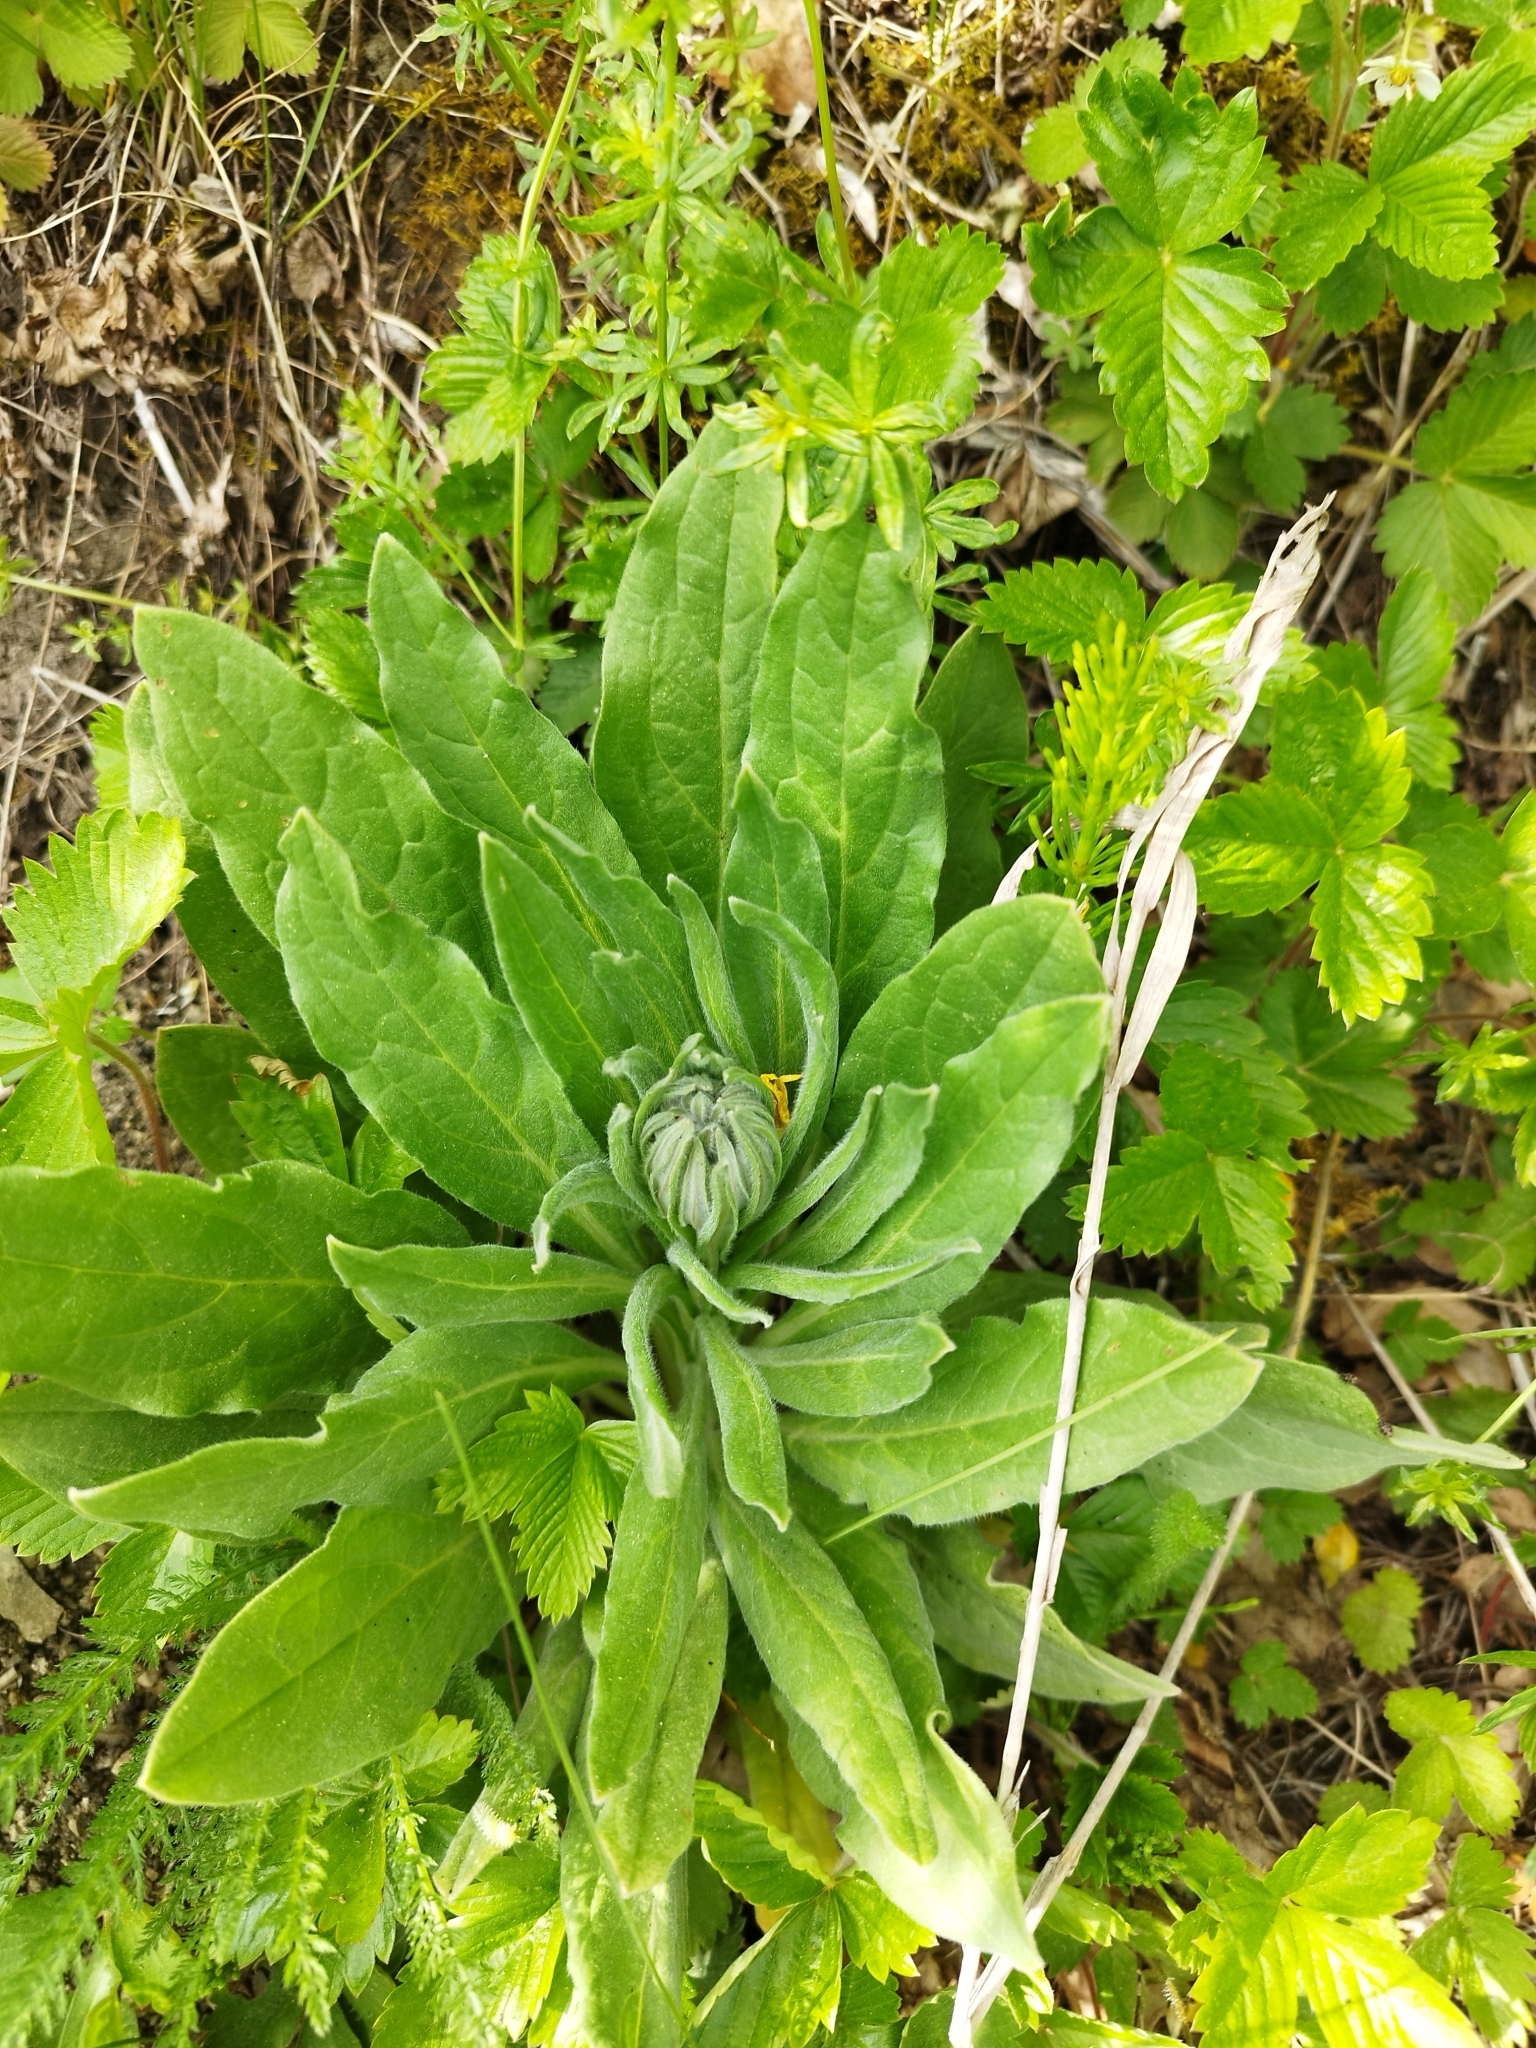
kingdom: Plantae
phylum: Tracheophyta
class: Magnoliopsida
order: Boraginales
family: Boraginaceae
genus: Cynoglossum
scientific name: Cynoglossum officinale
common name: Hound's-tongue
